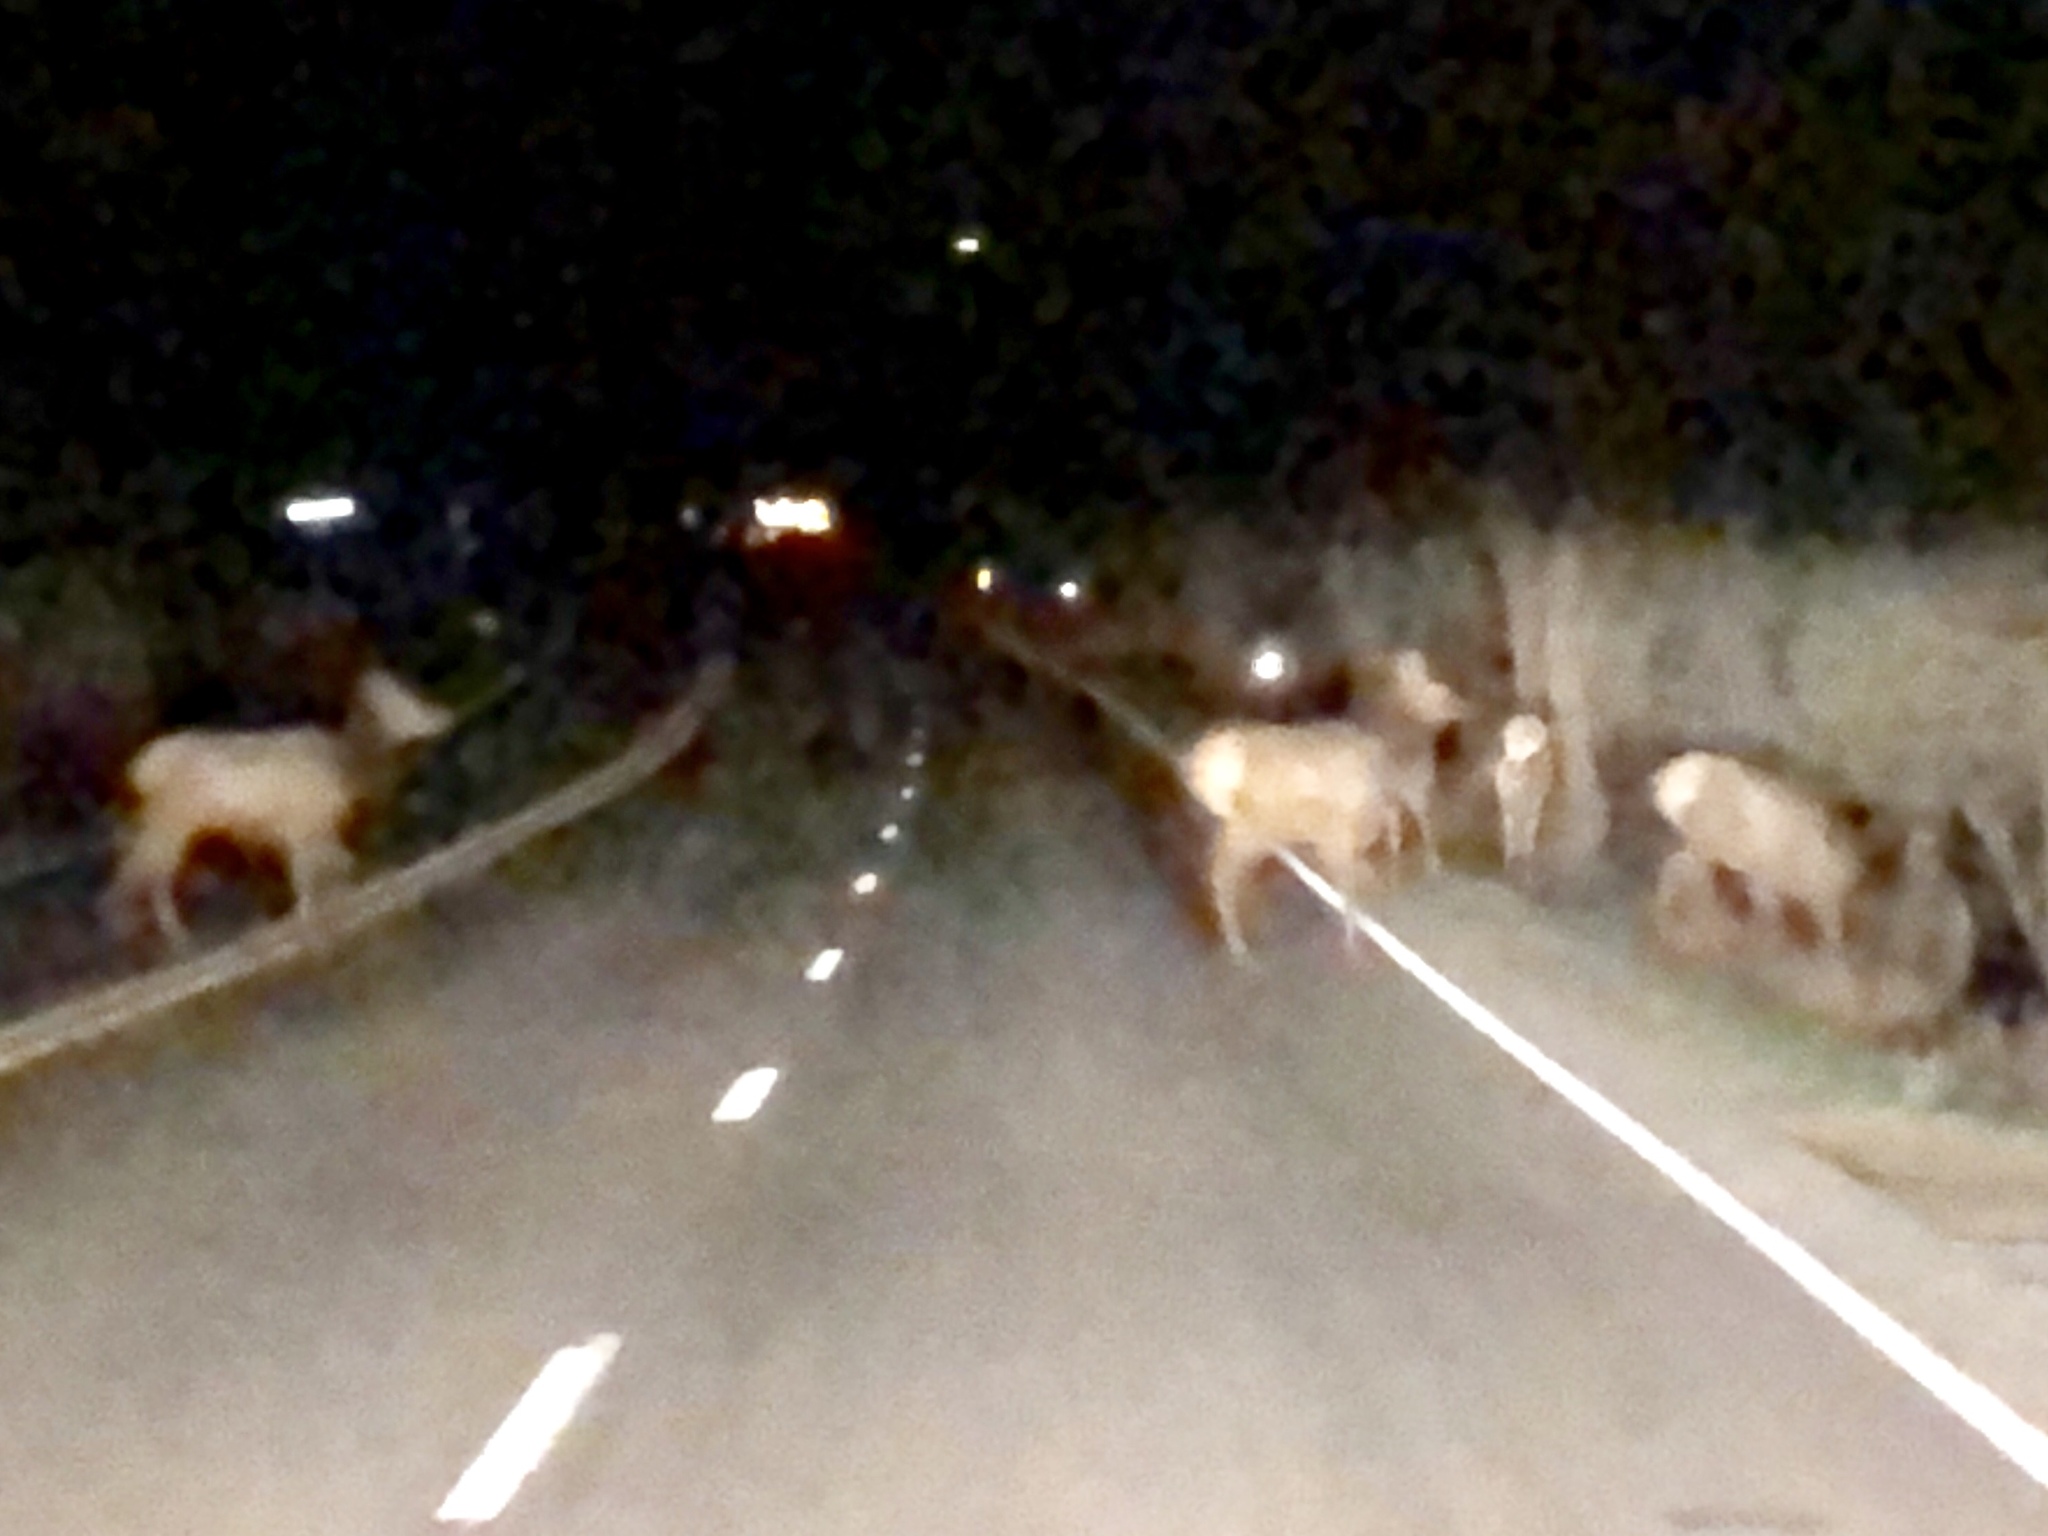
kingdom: Animalia
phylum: Chordata
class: Mammalia
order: Artiodactyla
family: Cervidae
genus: Cervus
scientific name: Cervus elaphus
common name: Red deer
